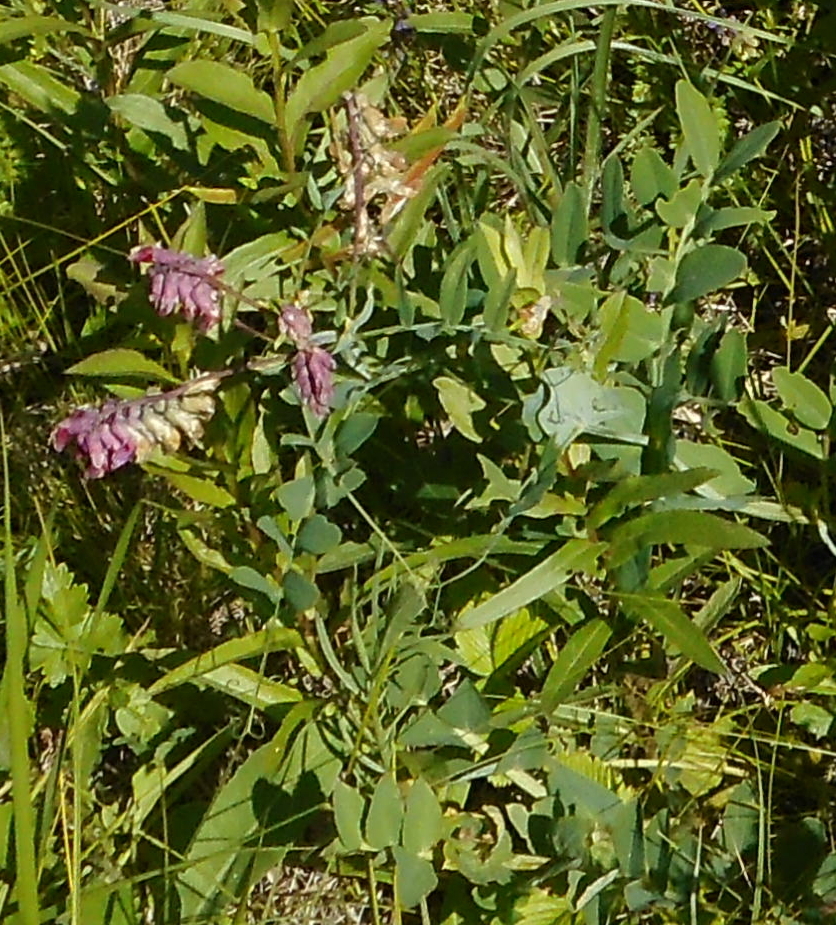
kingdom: Plantae
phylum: Tracheophyta
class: Magnoliopsida
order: Fabales
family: Fabaceae
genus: Lathyrus
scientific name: Lathyrus pisiformis
